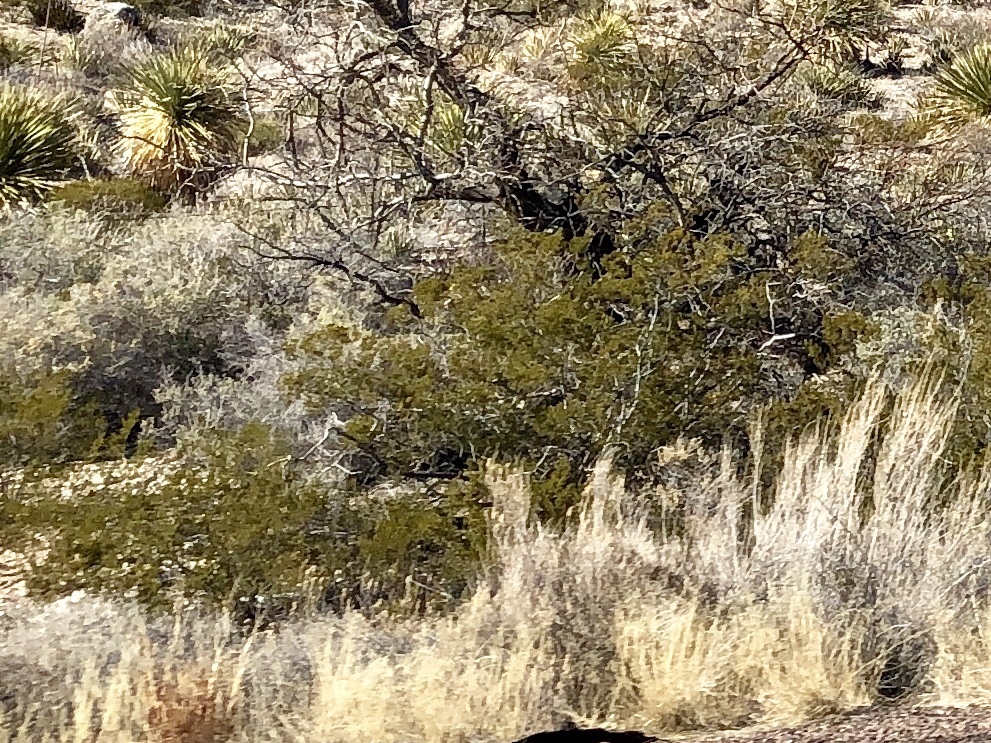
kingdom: Plantae
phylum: Tracheophyta
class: Magnoliopsida
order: Zygophyllales
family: Zygophyllaceae
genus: Larrea
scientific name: Larrea tridentata
